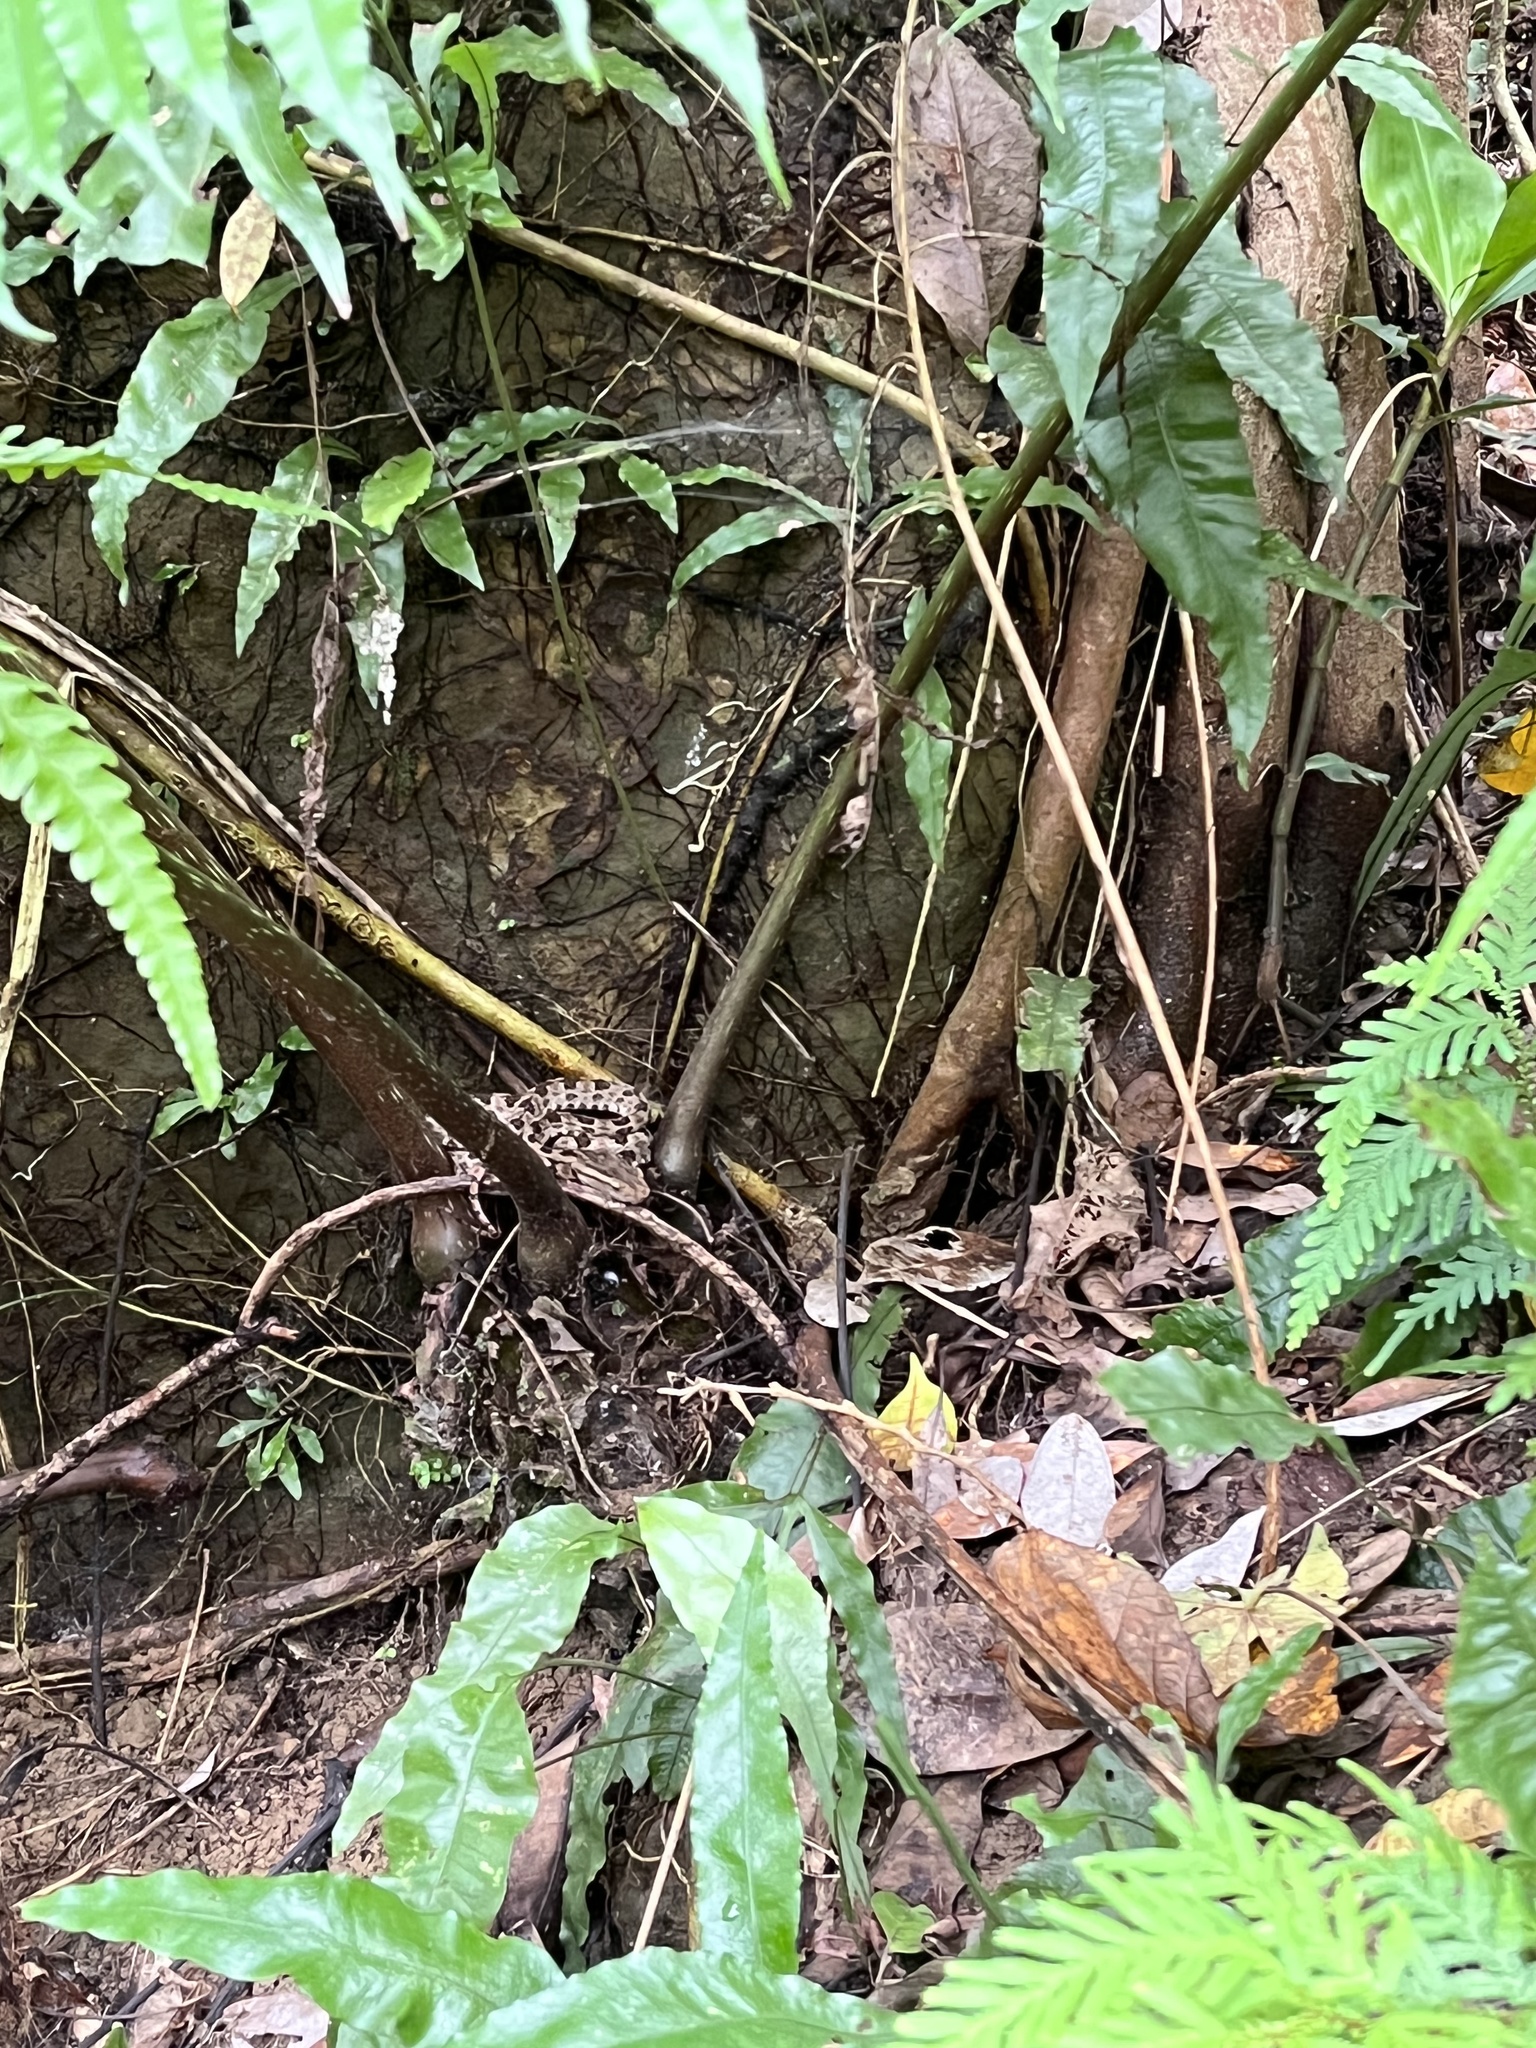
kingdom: Animalia
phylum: Chordata
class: Squamata
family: Viperidae
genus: Protobothrops
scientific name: Protobothrops mucrosquamatus
